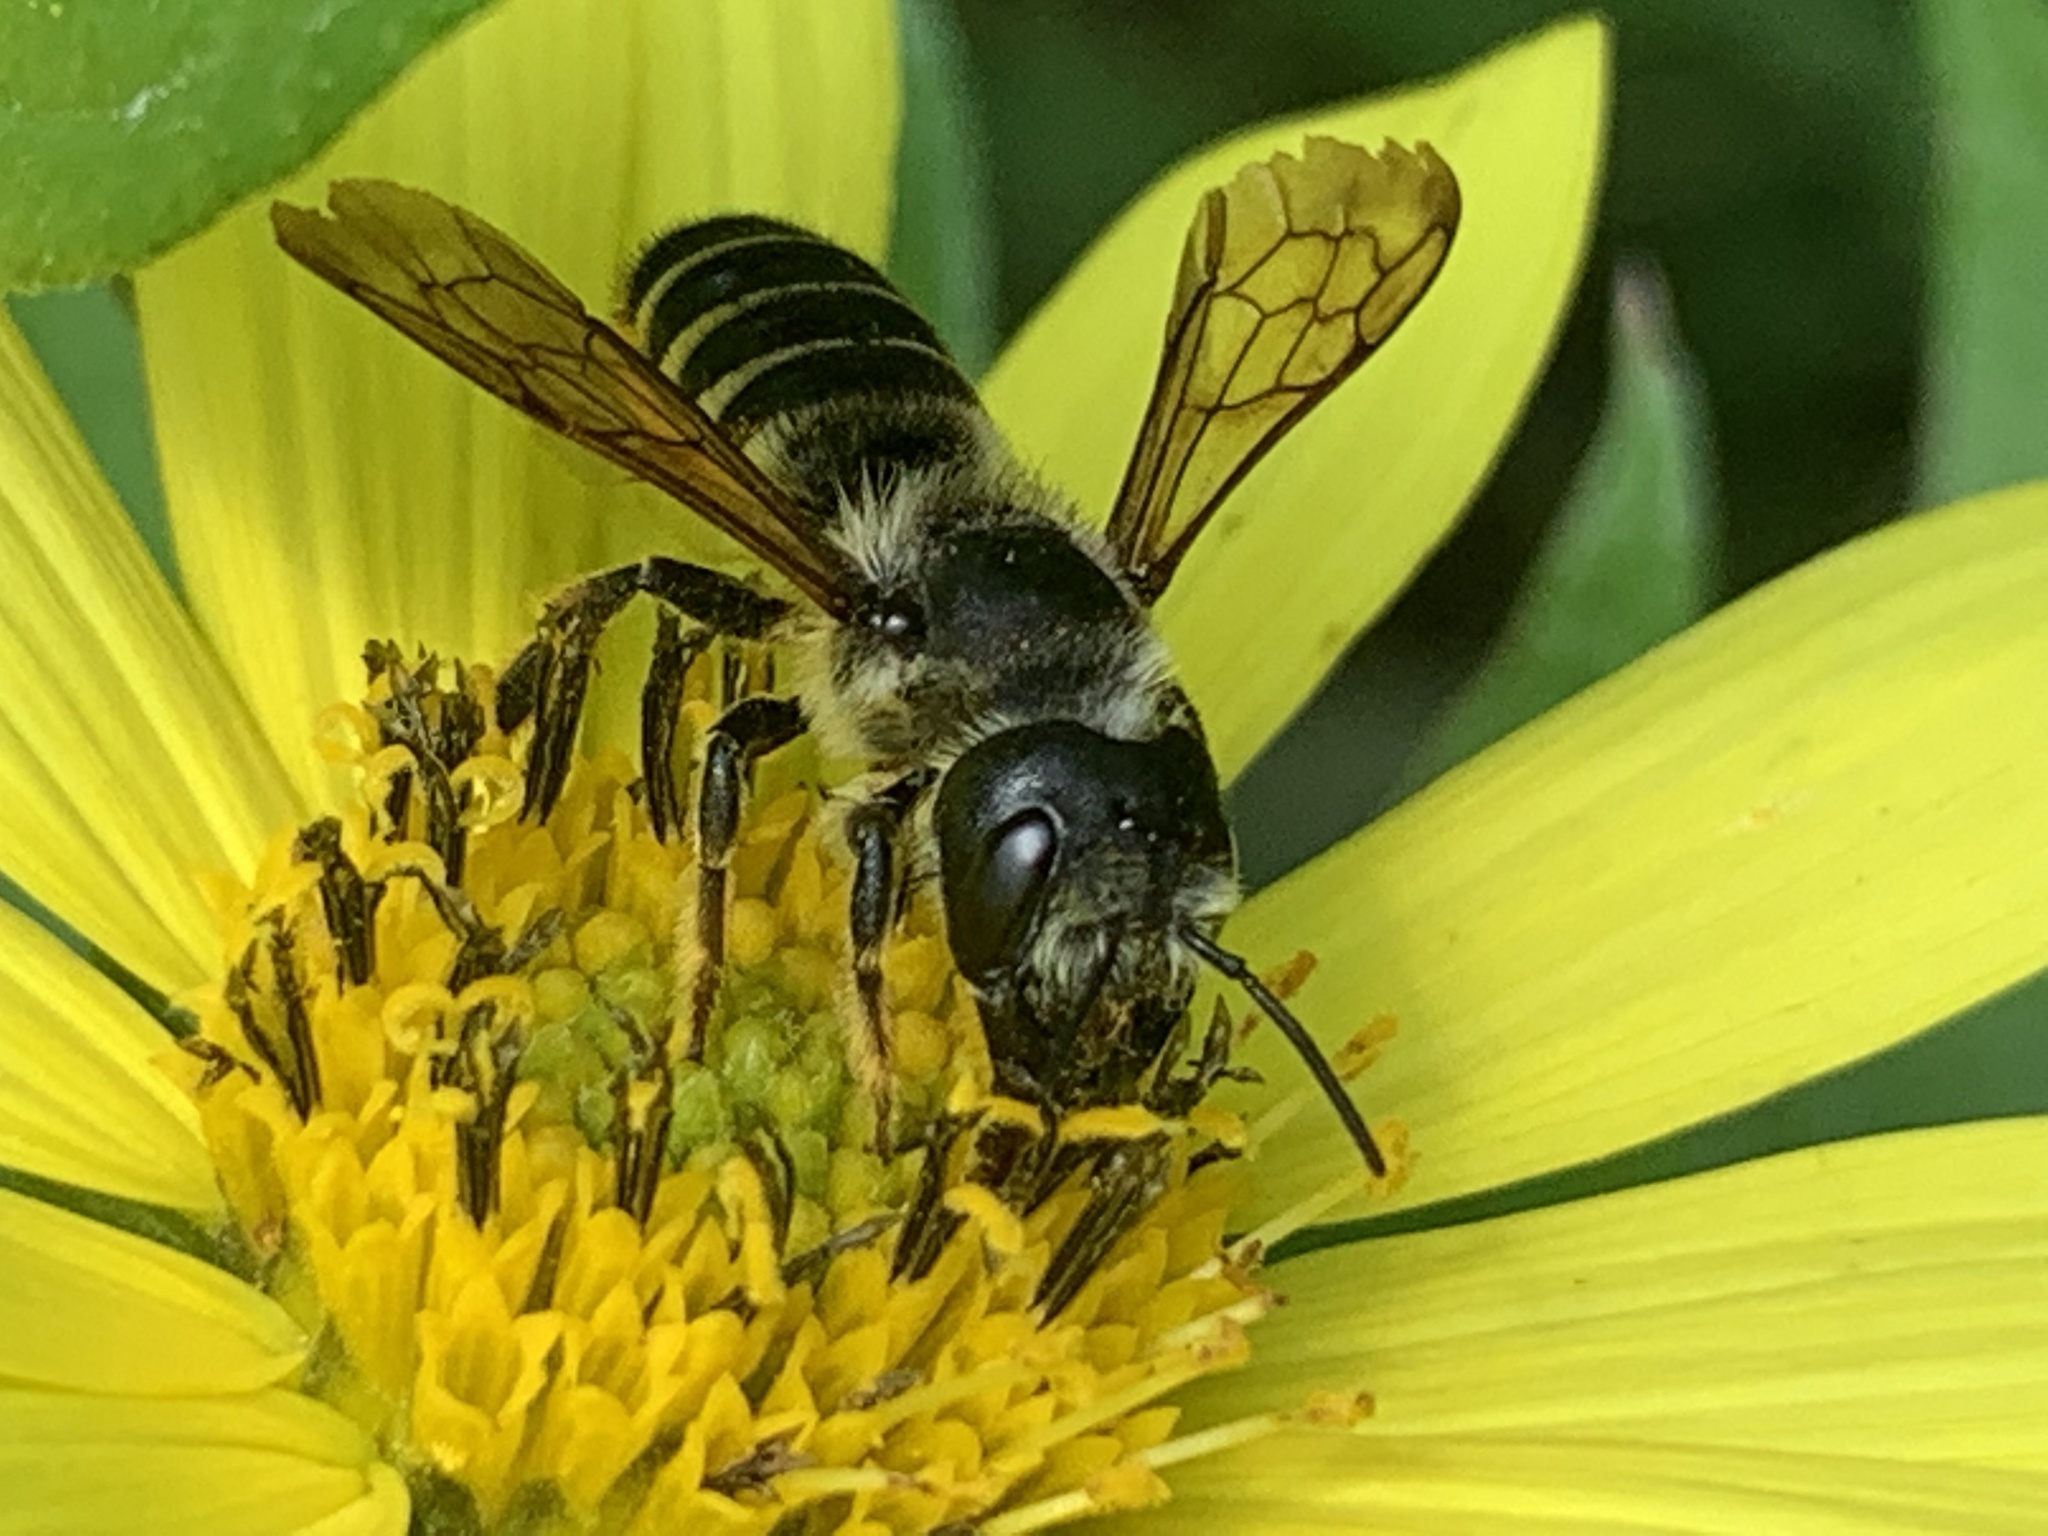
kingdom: Animalia
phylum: Arthropoda
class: Insecta
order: Hymenoptera
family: Megachilidae
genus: Megachile
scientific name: Megachile pugnata
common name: Pugnacious leafcutter bee
